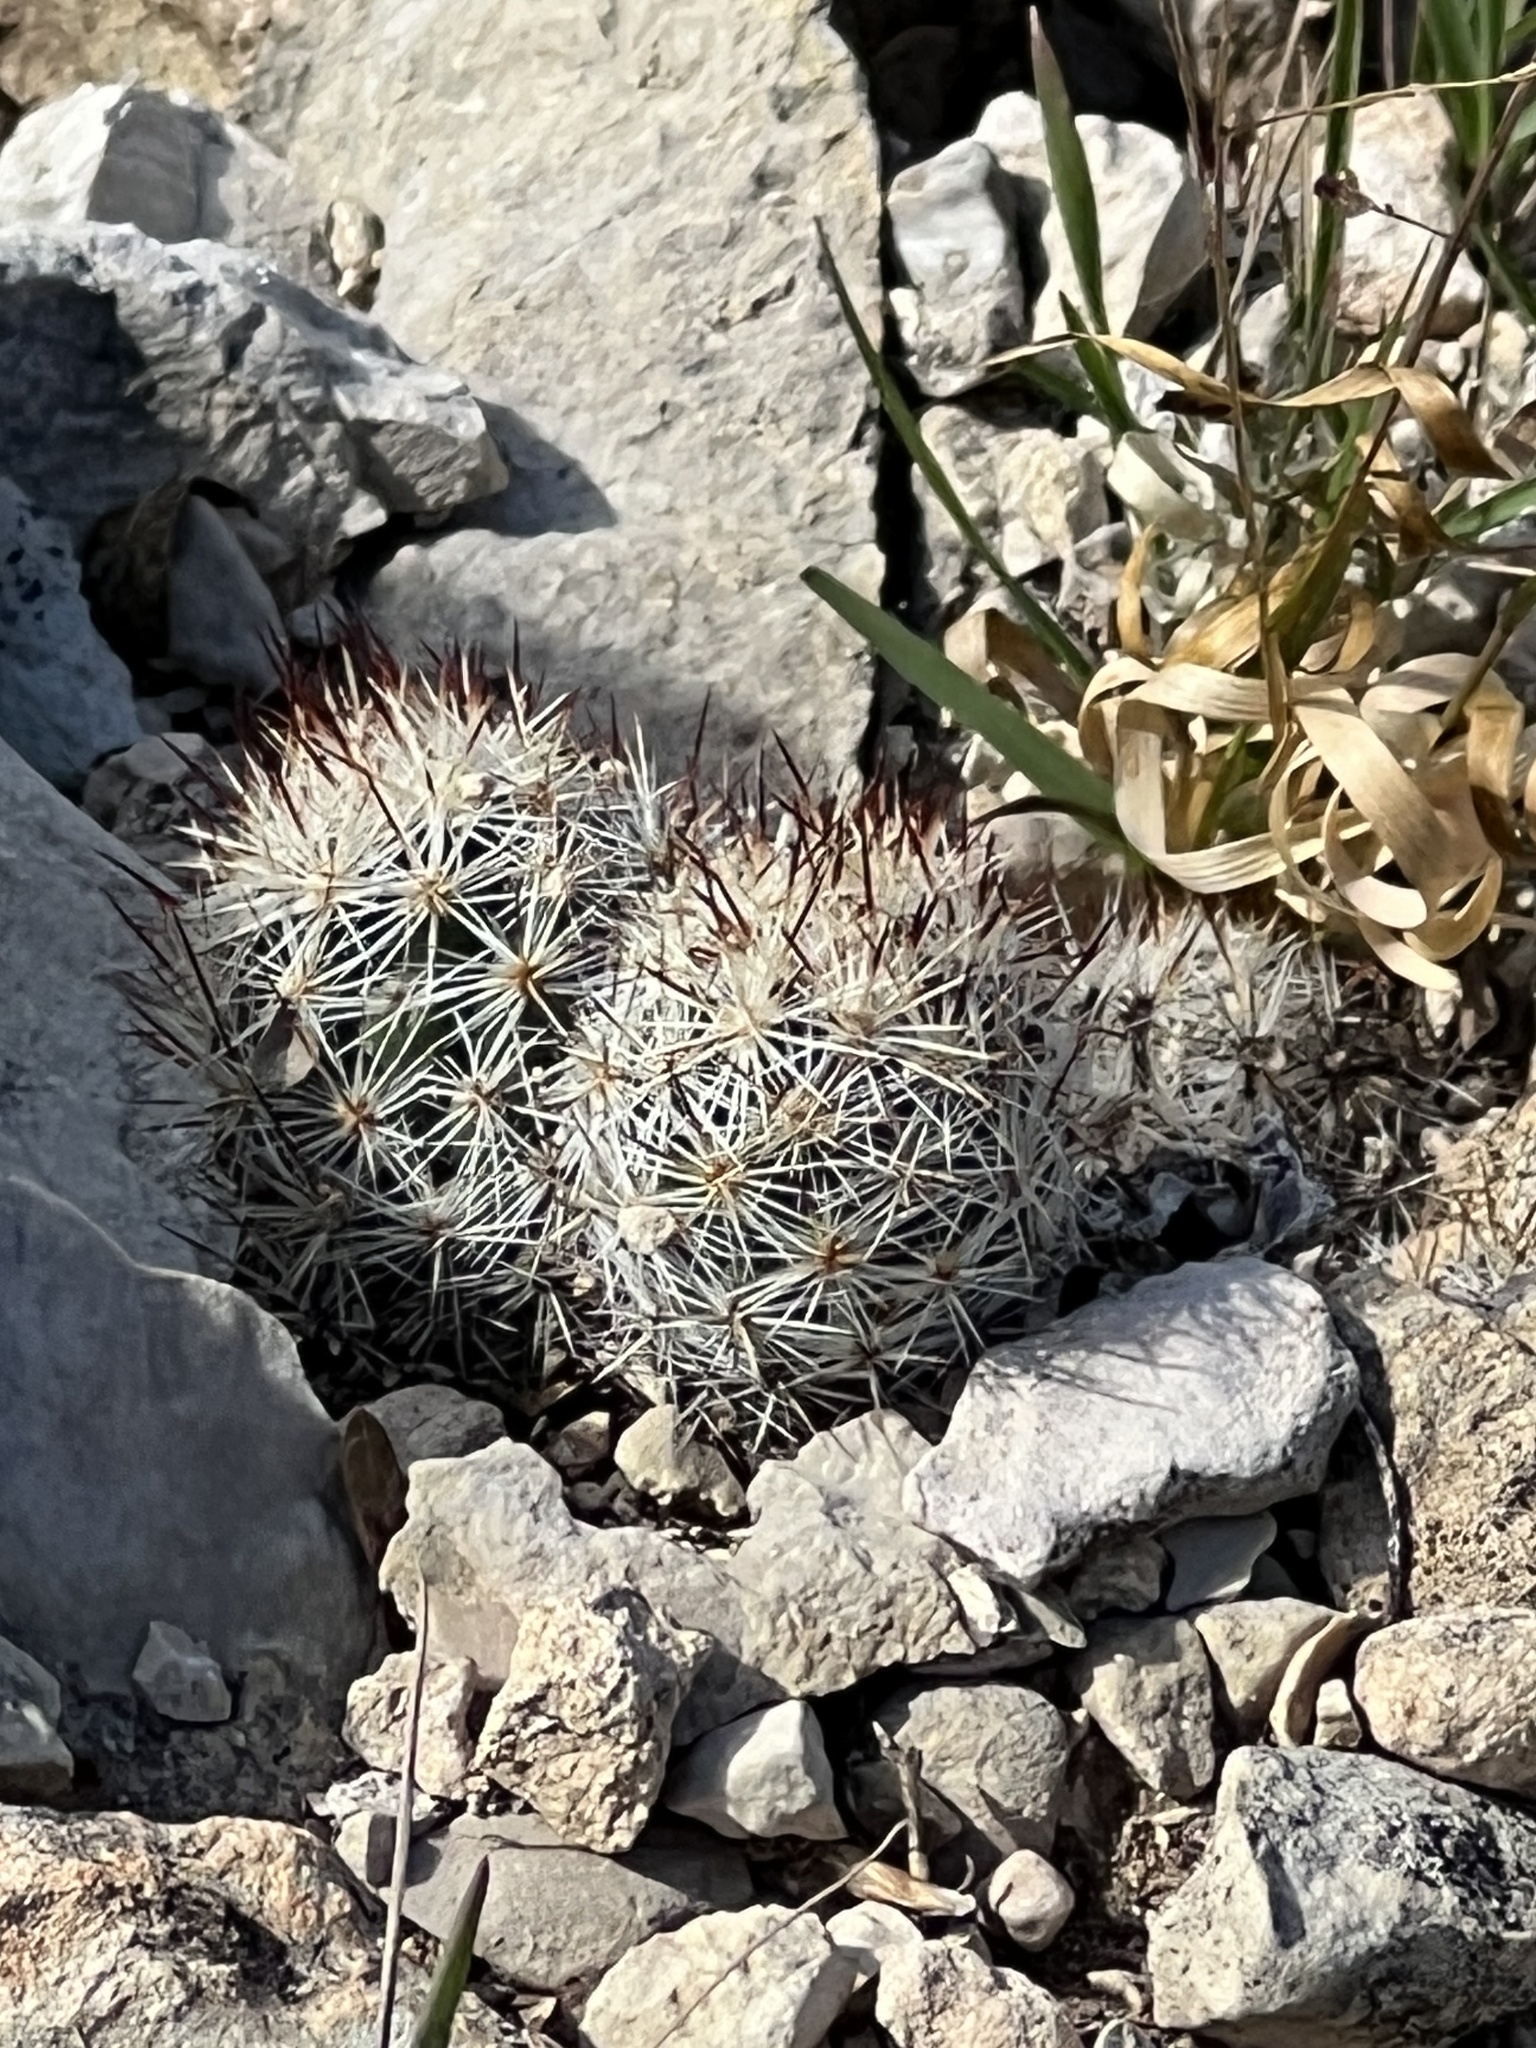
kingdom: Plantae
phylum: Tracheophyta
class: Magnoliopsida
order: Caryophyllales
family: Cactaceae
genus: Pelecyphora
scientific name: Pelecyphora emskoetteriana
